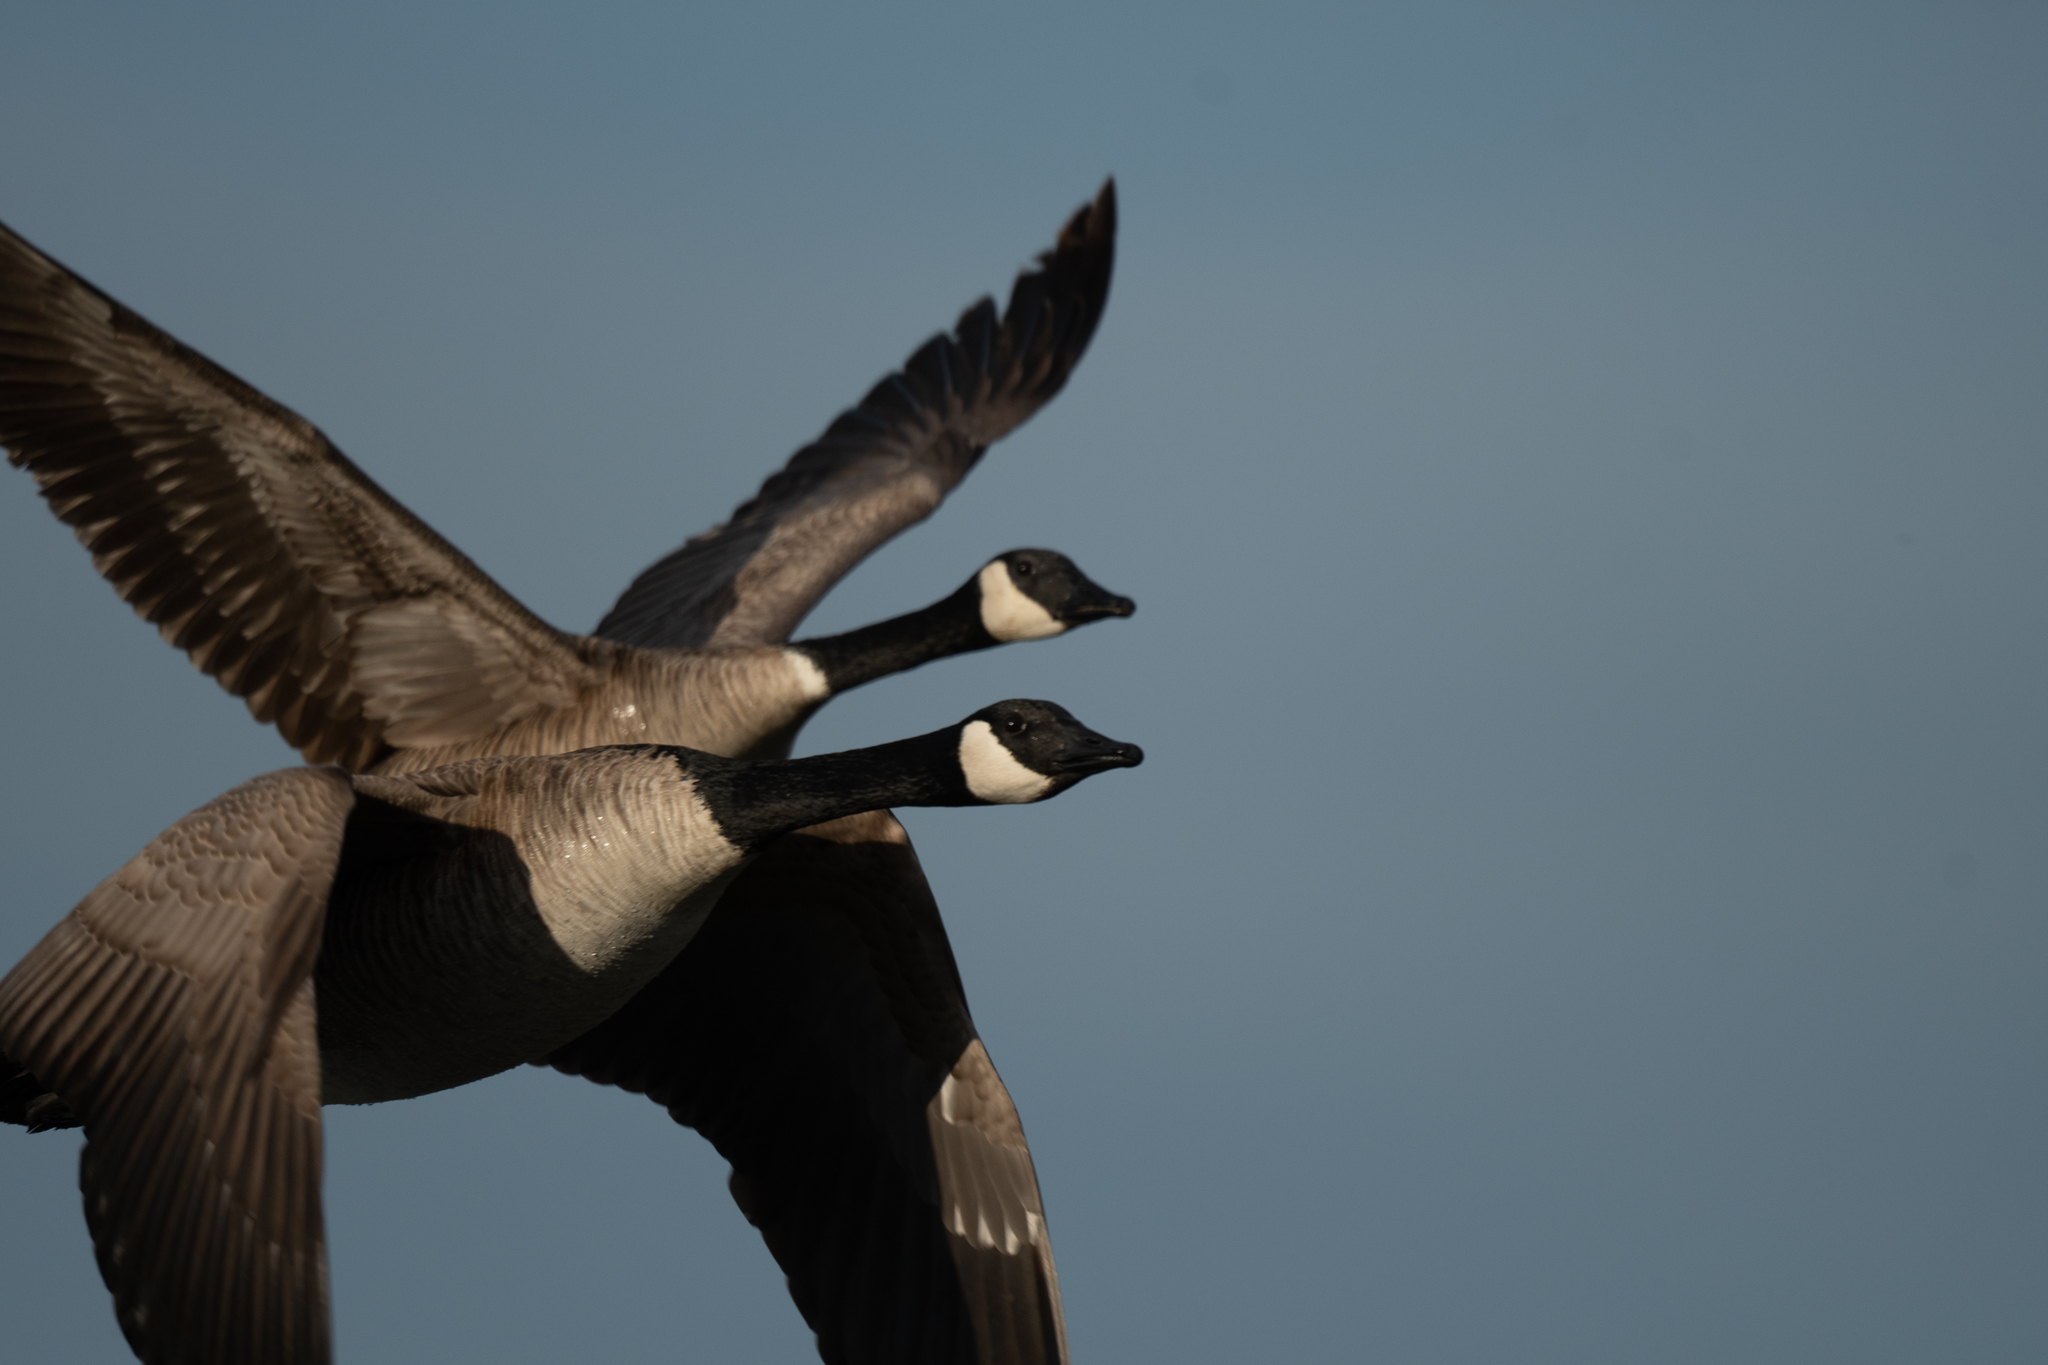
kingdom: Animalia
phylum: Chordata
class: Aves
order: Anseriformes
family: Anatidae
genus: Branta
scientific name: Branta canadensis
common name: Canada goose
